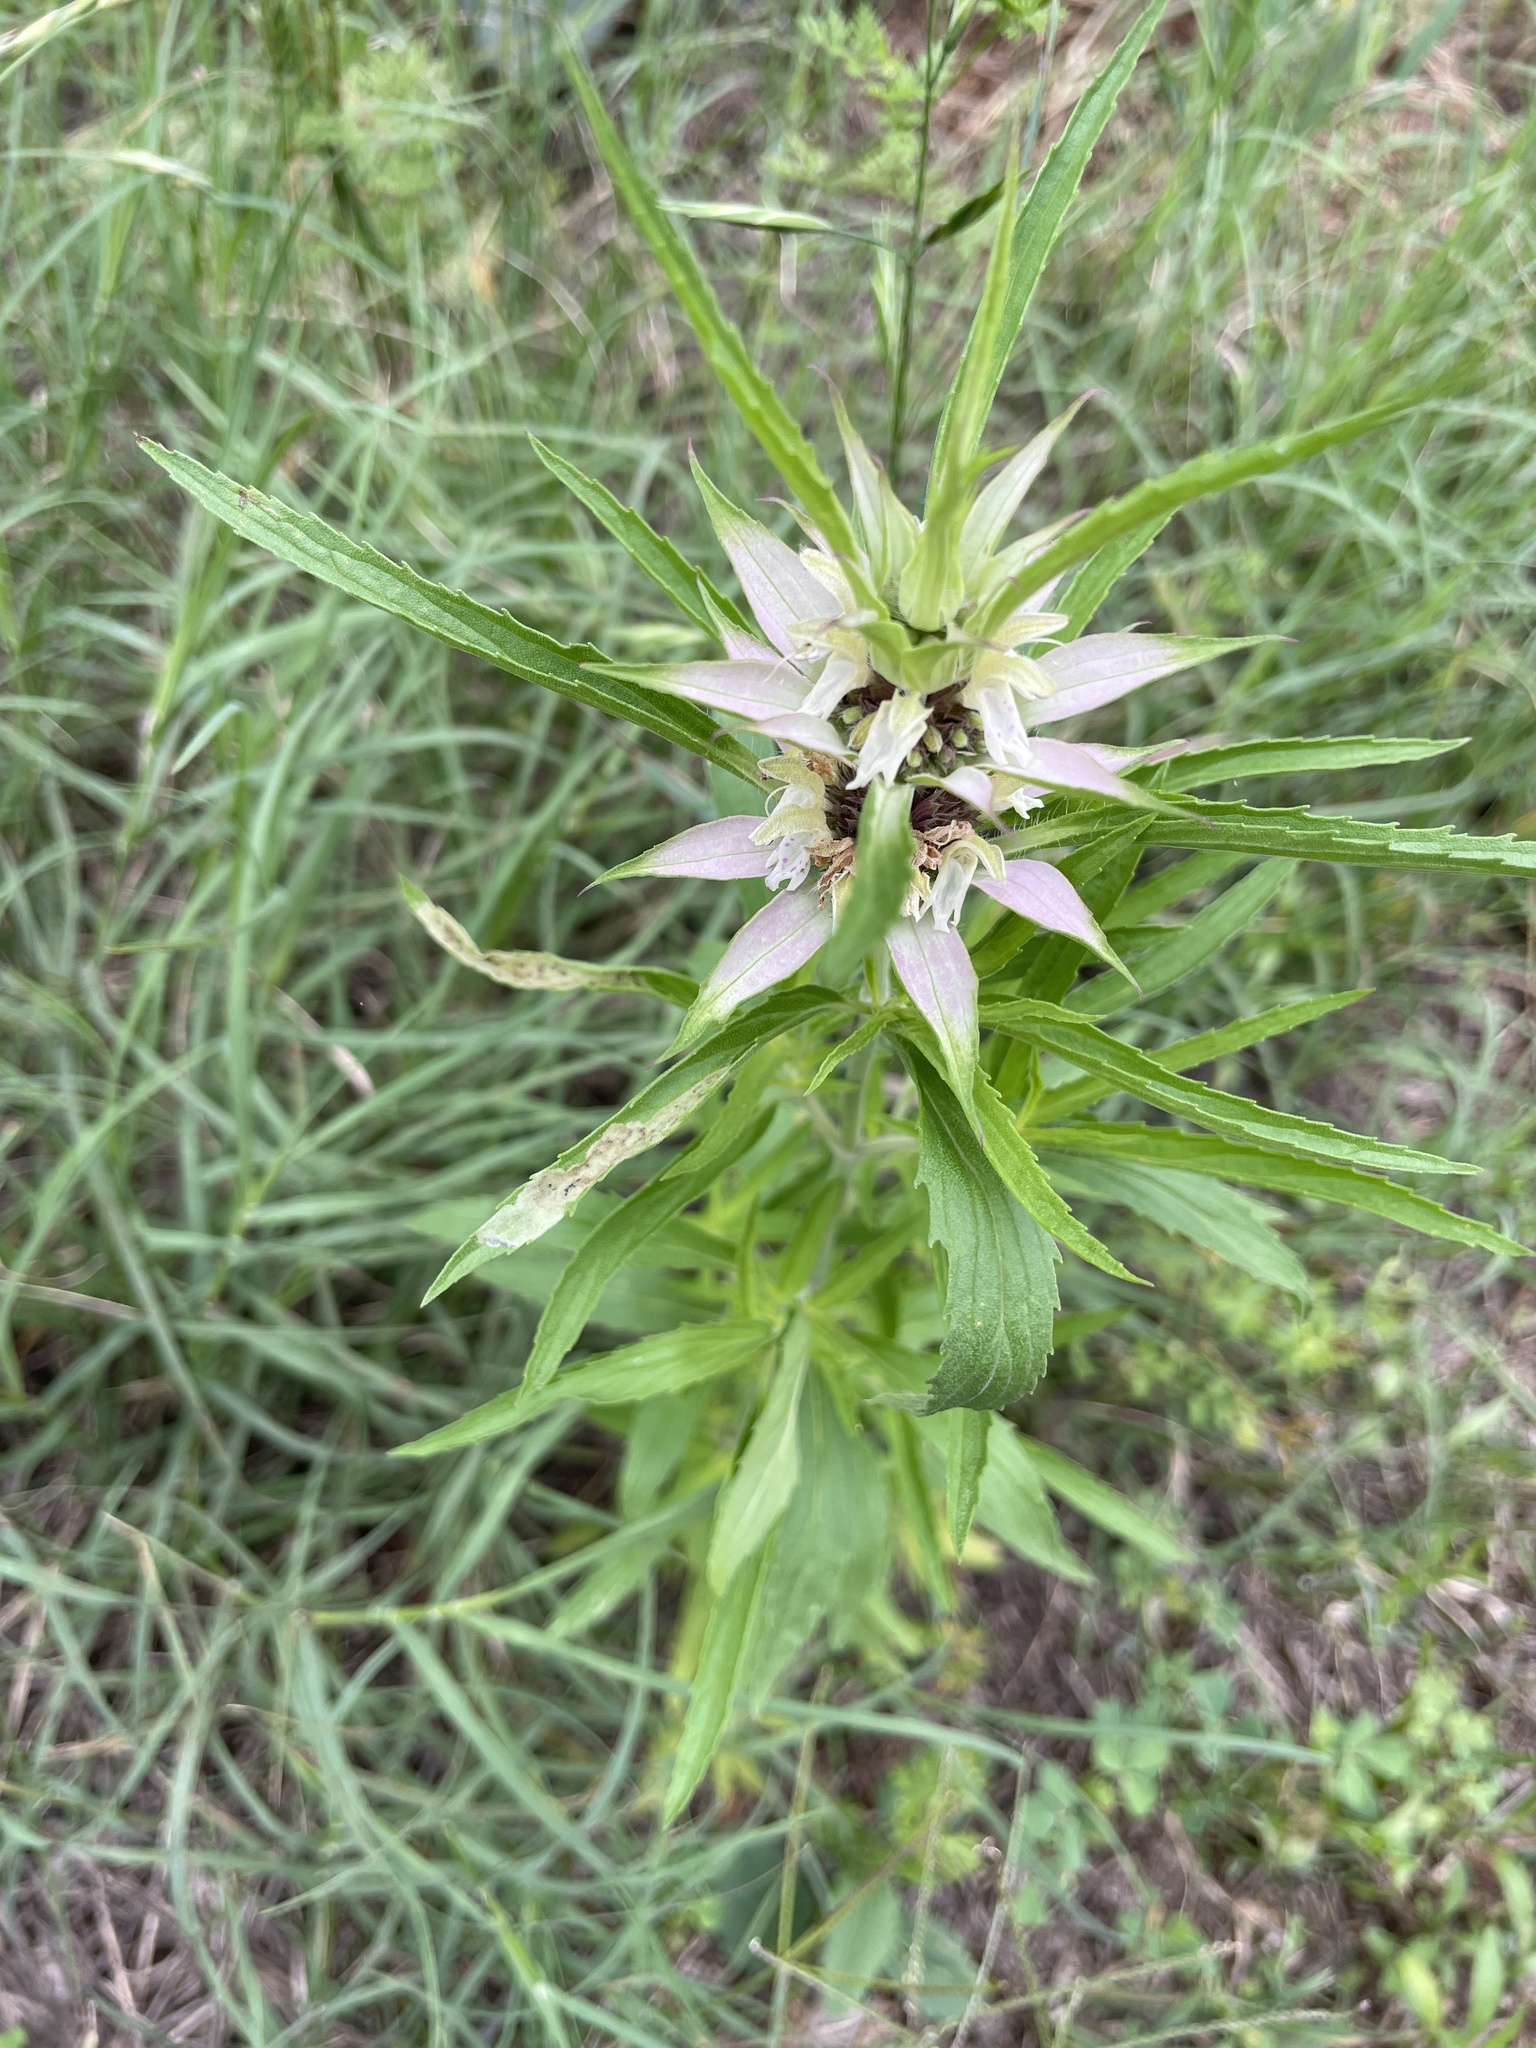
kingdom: Plantae
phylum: Tracheophyta
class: Magnoliopsida
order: Lamiales
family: Lamiaceae
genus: Monarda
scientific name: Monarda punctata
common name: Dotted monarda
